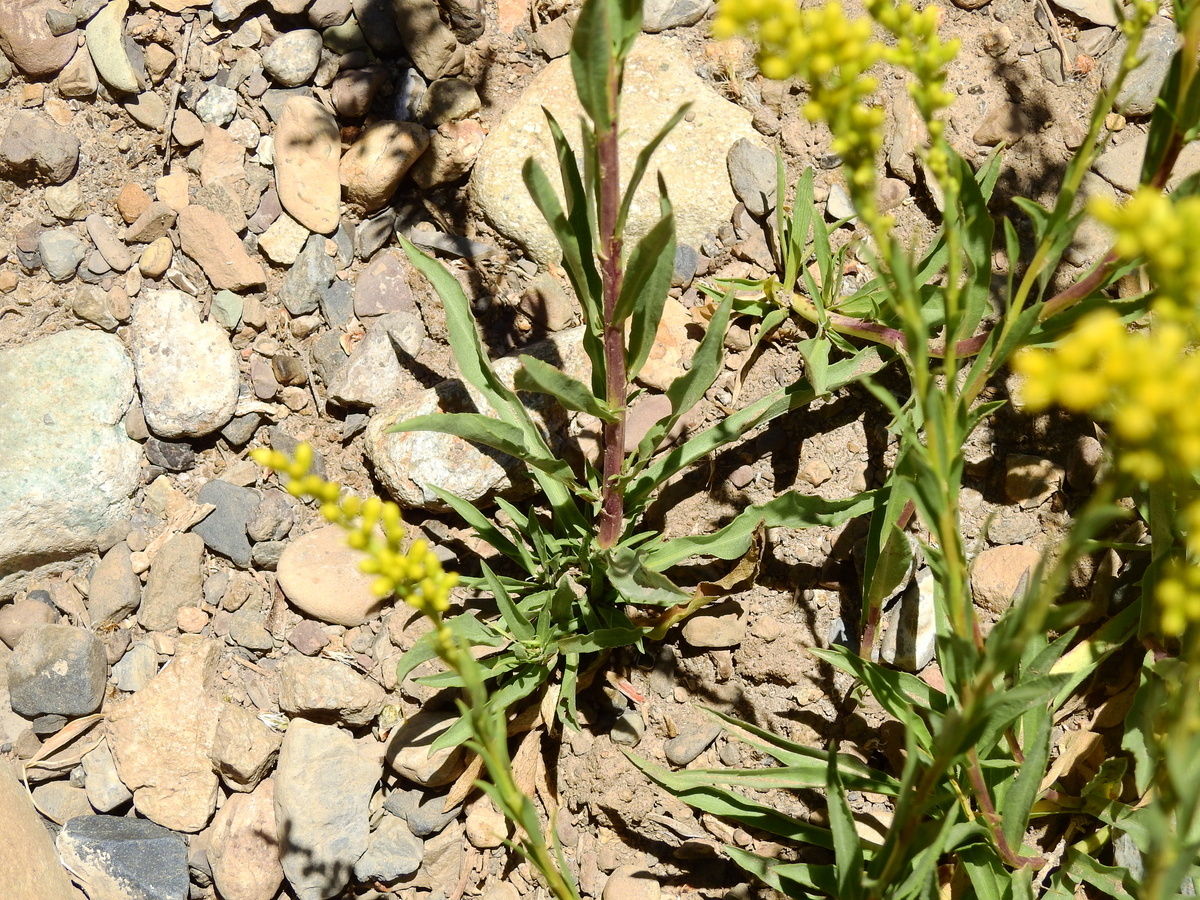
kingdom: Plantae
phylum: Tracheophyta
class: Magnoliopsida
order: Asterales
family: Asteraceae
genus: Solidago
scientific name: Solidago argentinensis
